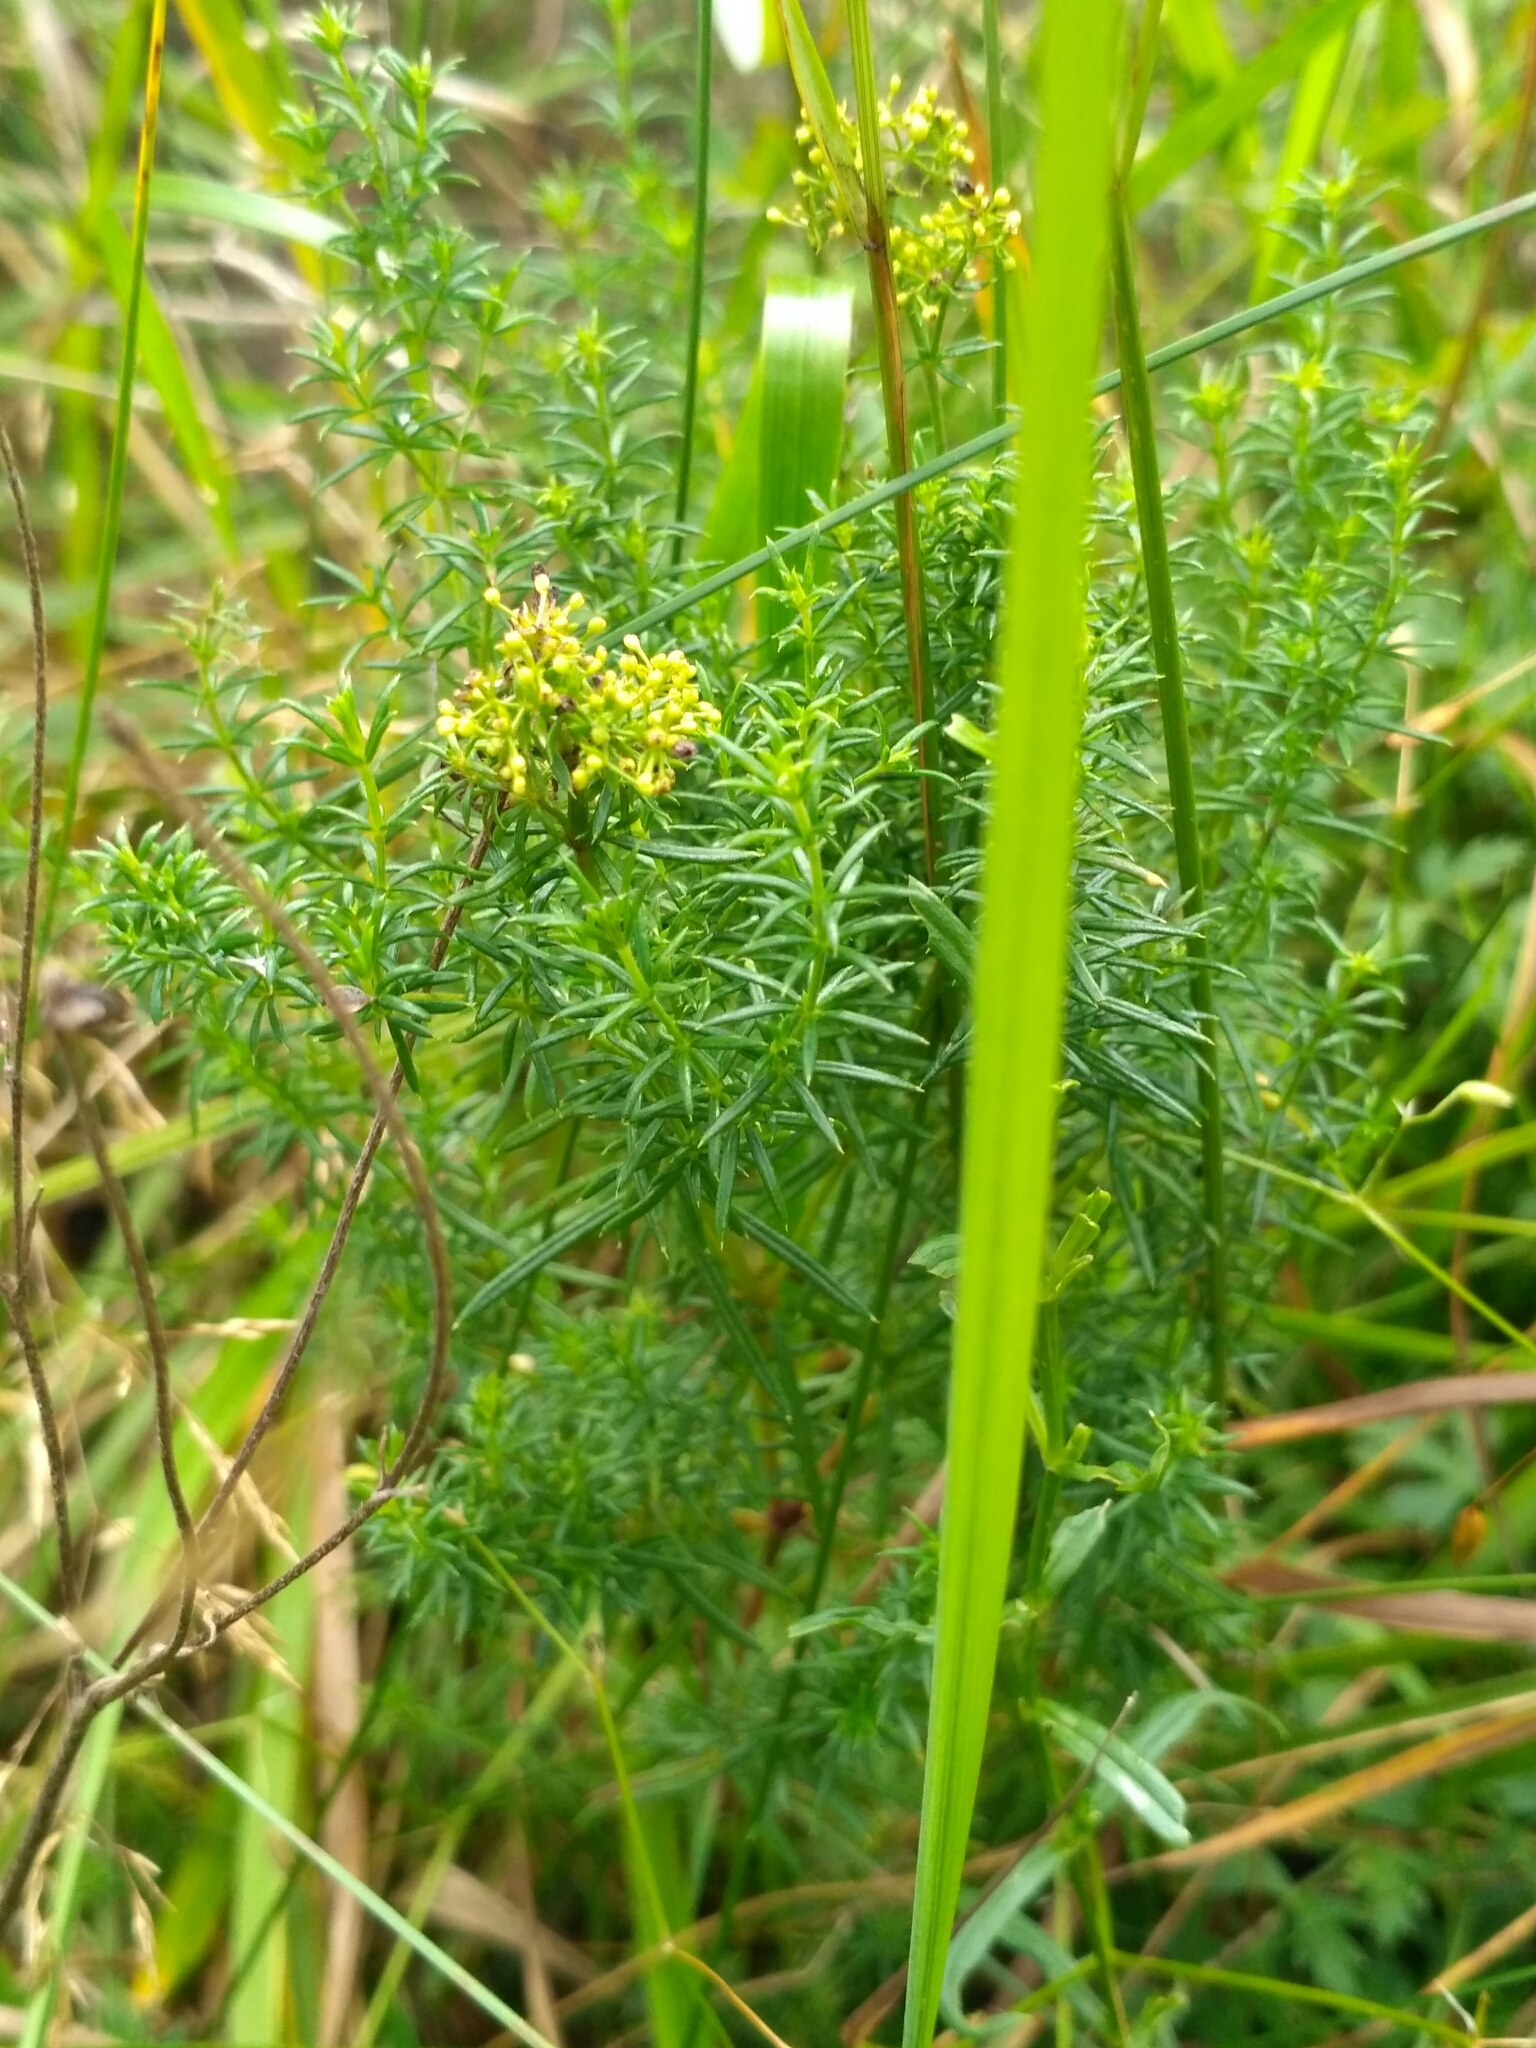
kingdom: Plantae
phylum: Tracheophyta
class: Magnoliopsida
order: Gentianales
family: Rubiaceae
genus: Galium
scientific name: Galium verum
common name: Lady's bedstraw
